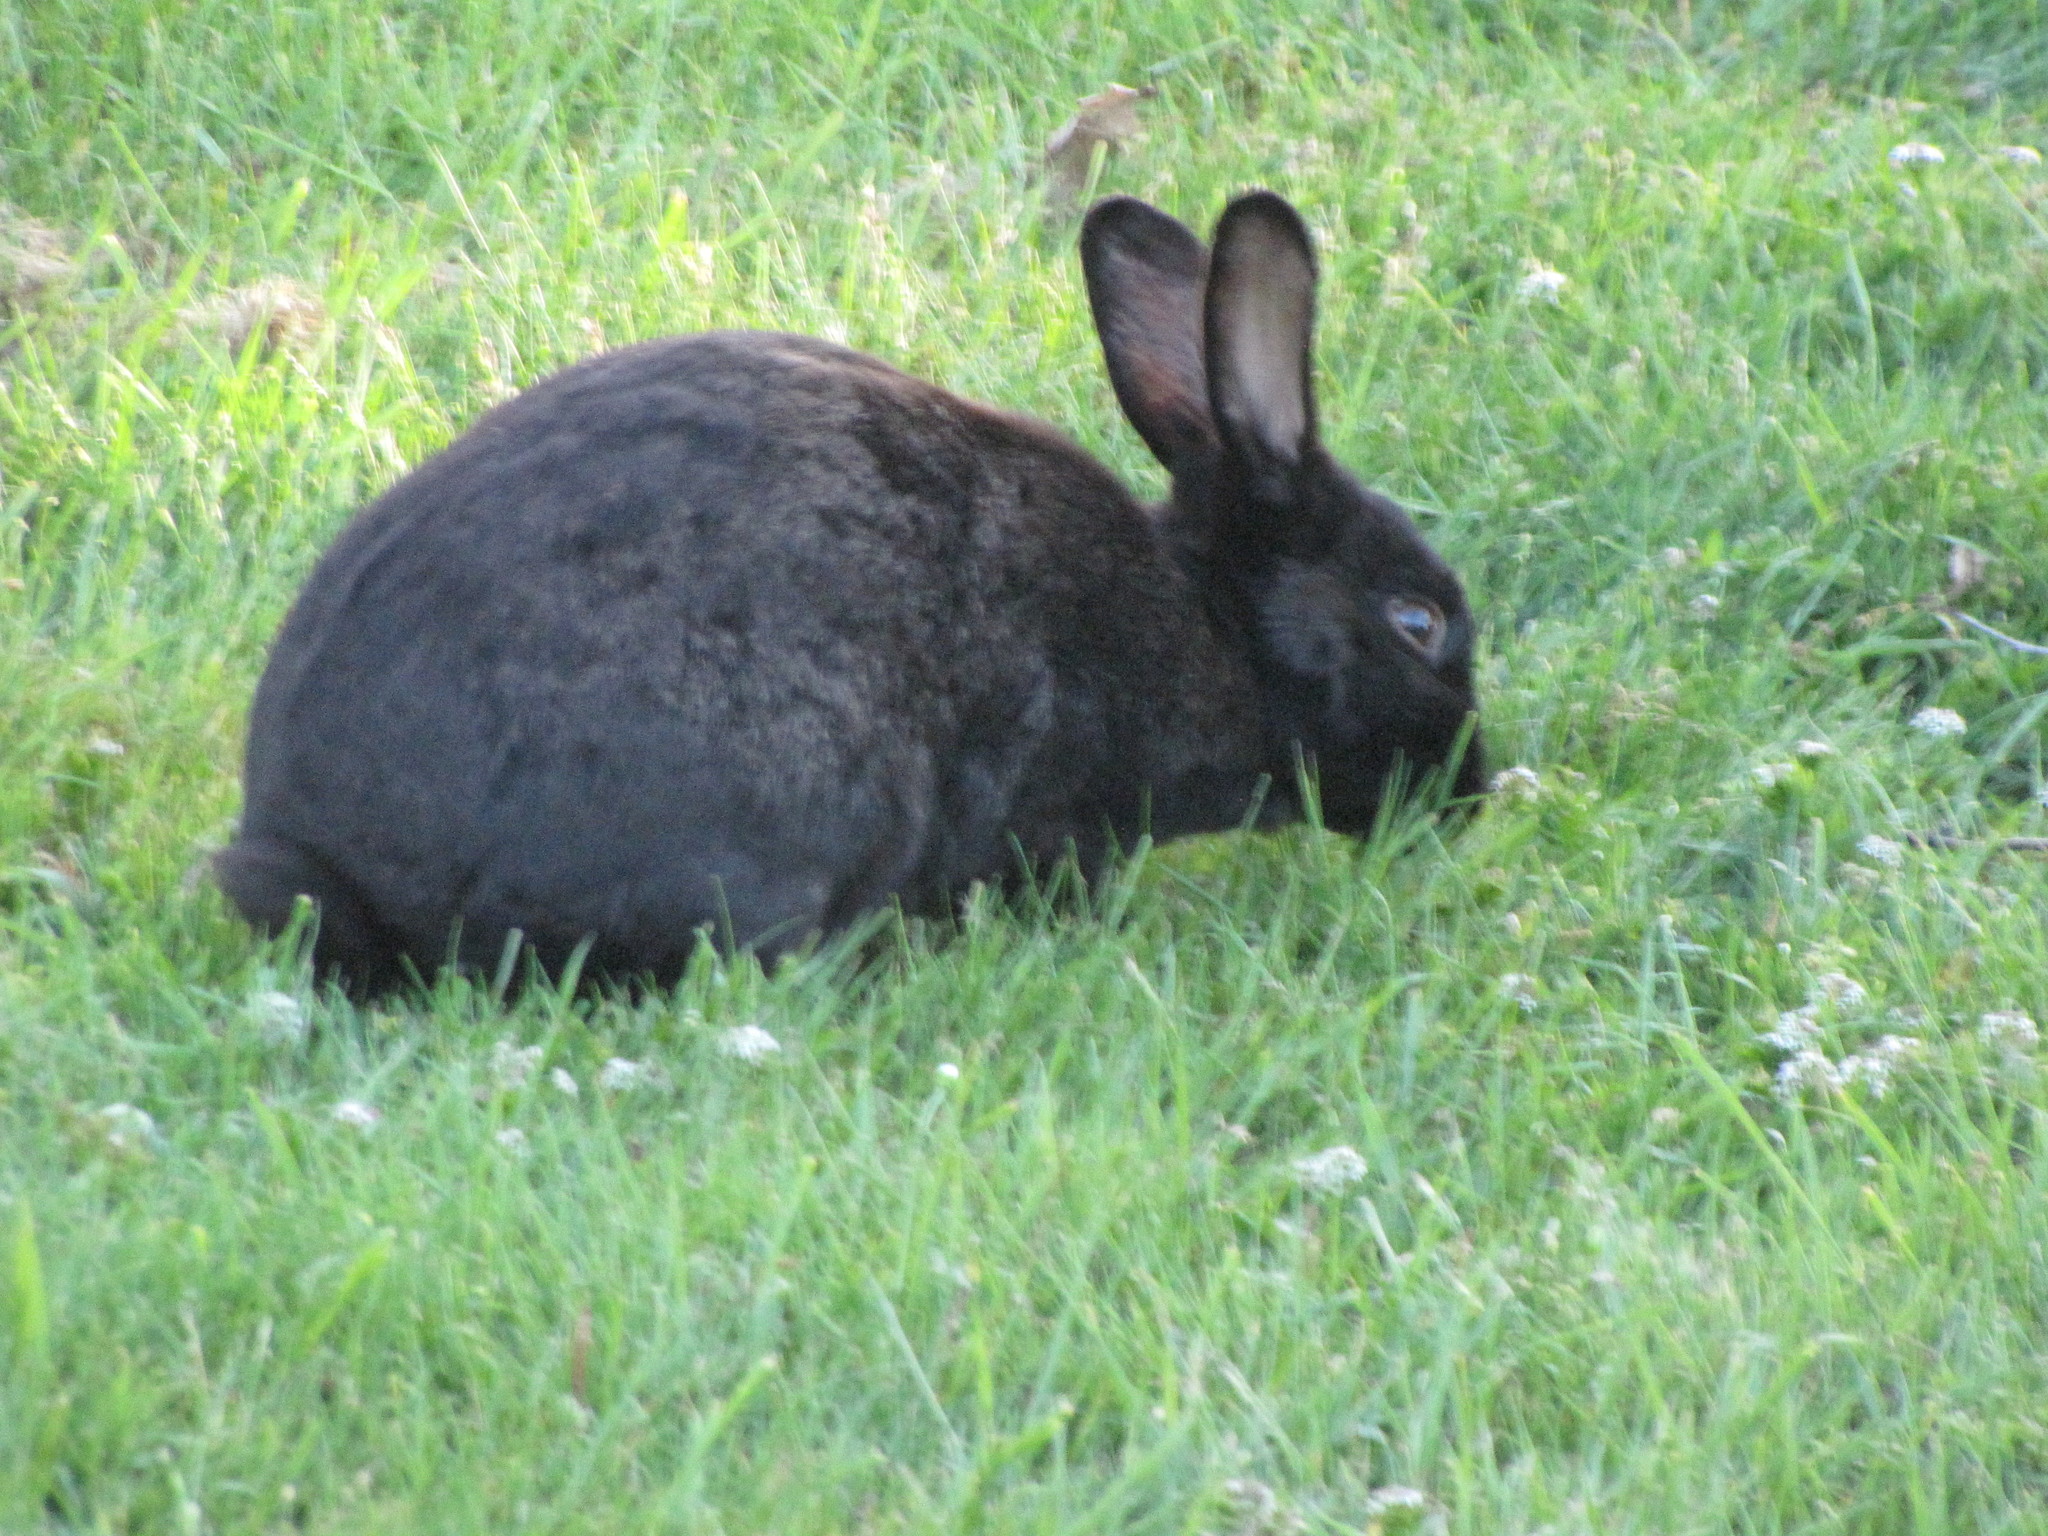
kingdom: Animalia
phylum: Chordata
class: Mammalia
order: Lagomorpha
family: Leporidae
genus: Oryctolagus
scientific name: Oryctolagus cuniculus
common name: European rabbit
